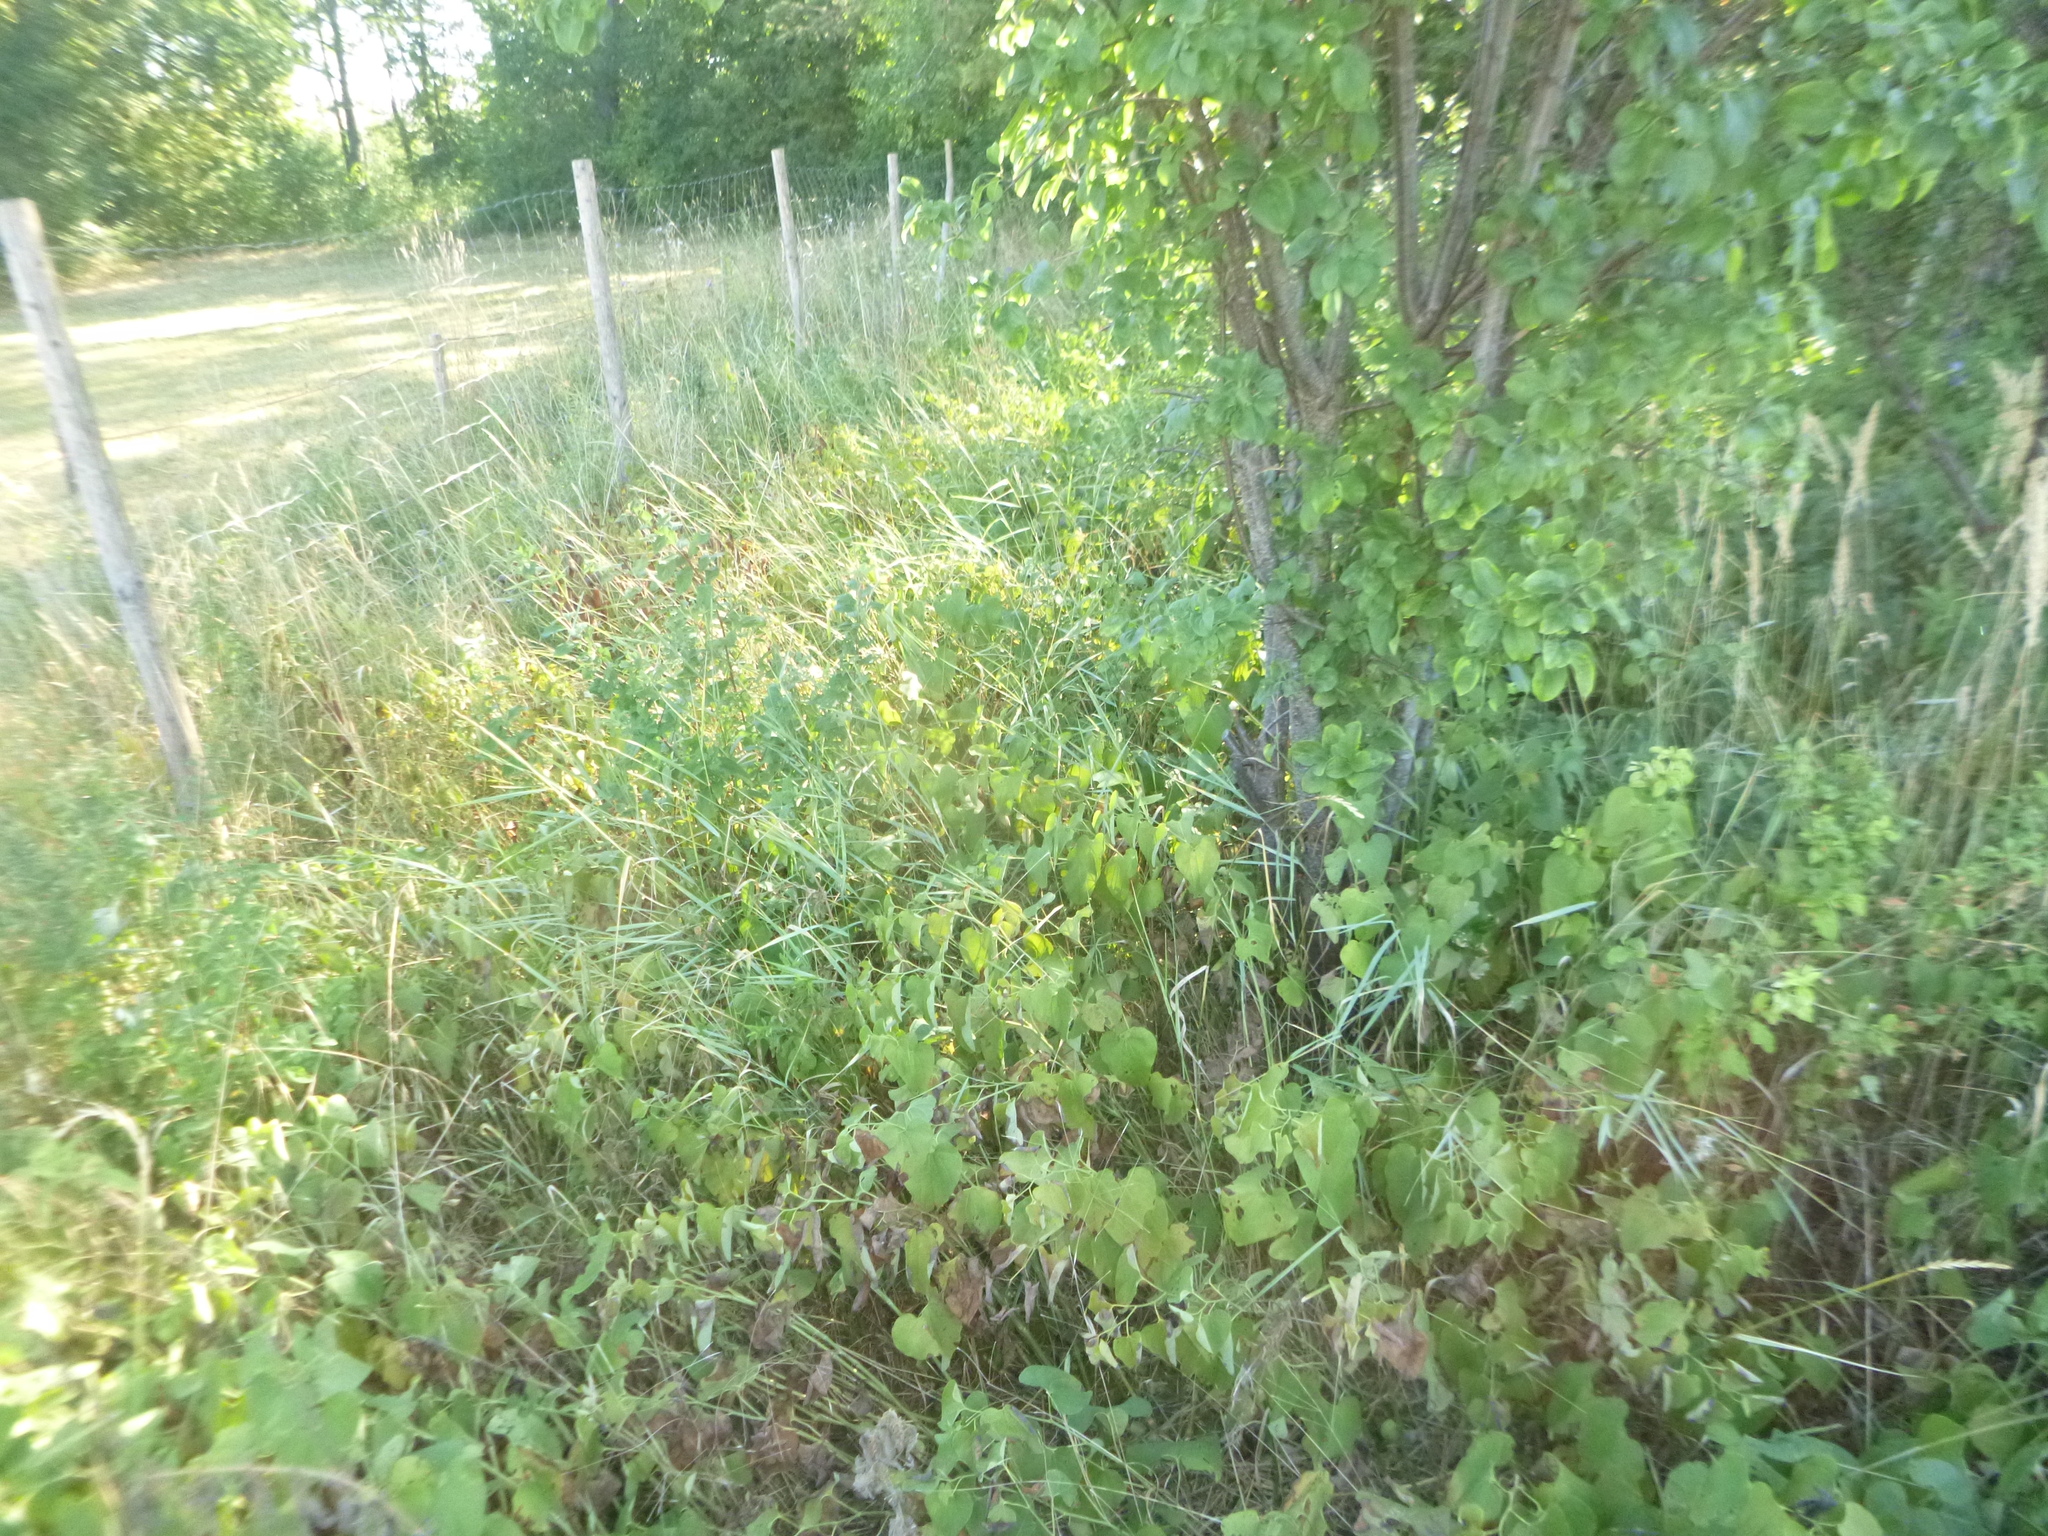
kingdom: Plantae
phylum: Tracheophyta
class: Magnoliopsida
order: Piperales
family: Aristolochiaceae
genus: Aristolochia
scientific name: Aristolochia clematitis
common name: Birthwort
